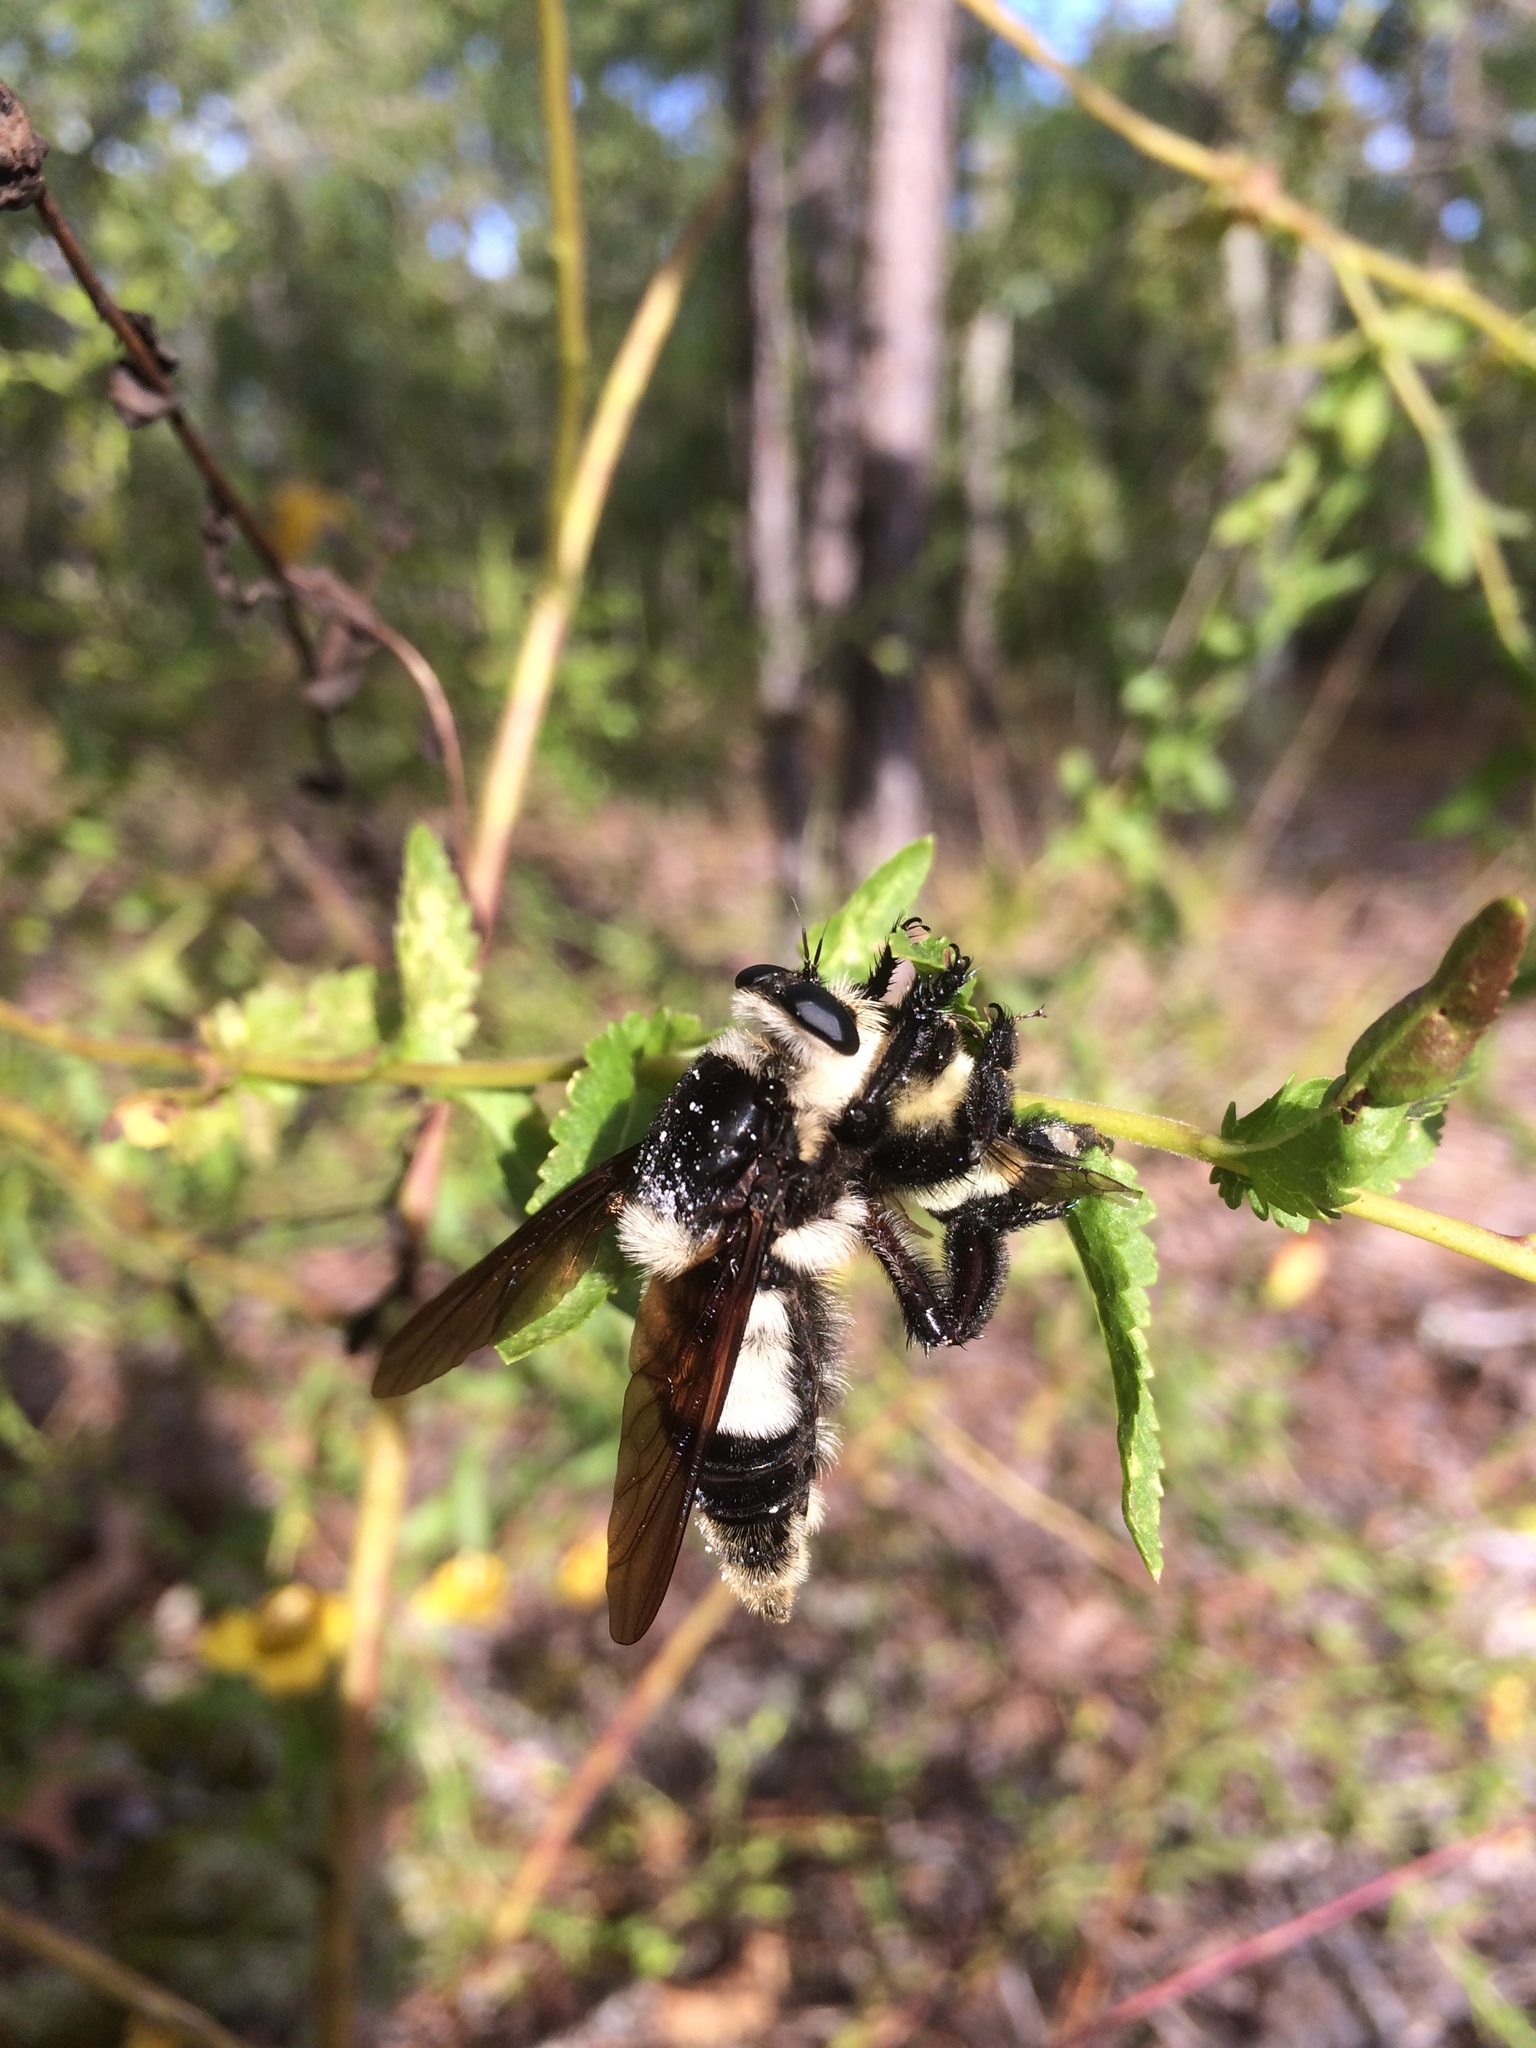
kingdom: Animalia
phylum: Arthropoda
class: Insecta
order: Diptera
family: Asilidae
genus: Mallophora
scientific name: Mallophora bomboides
